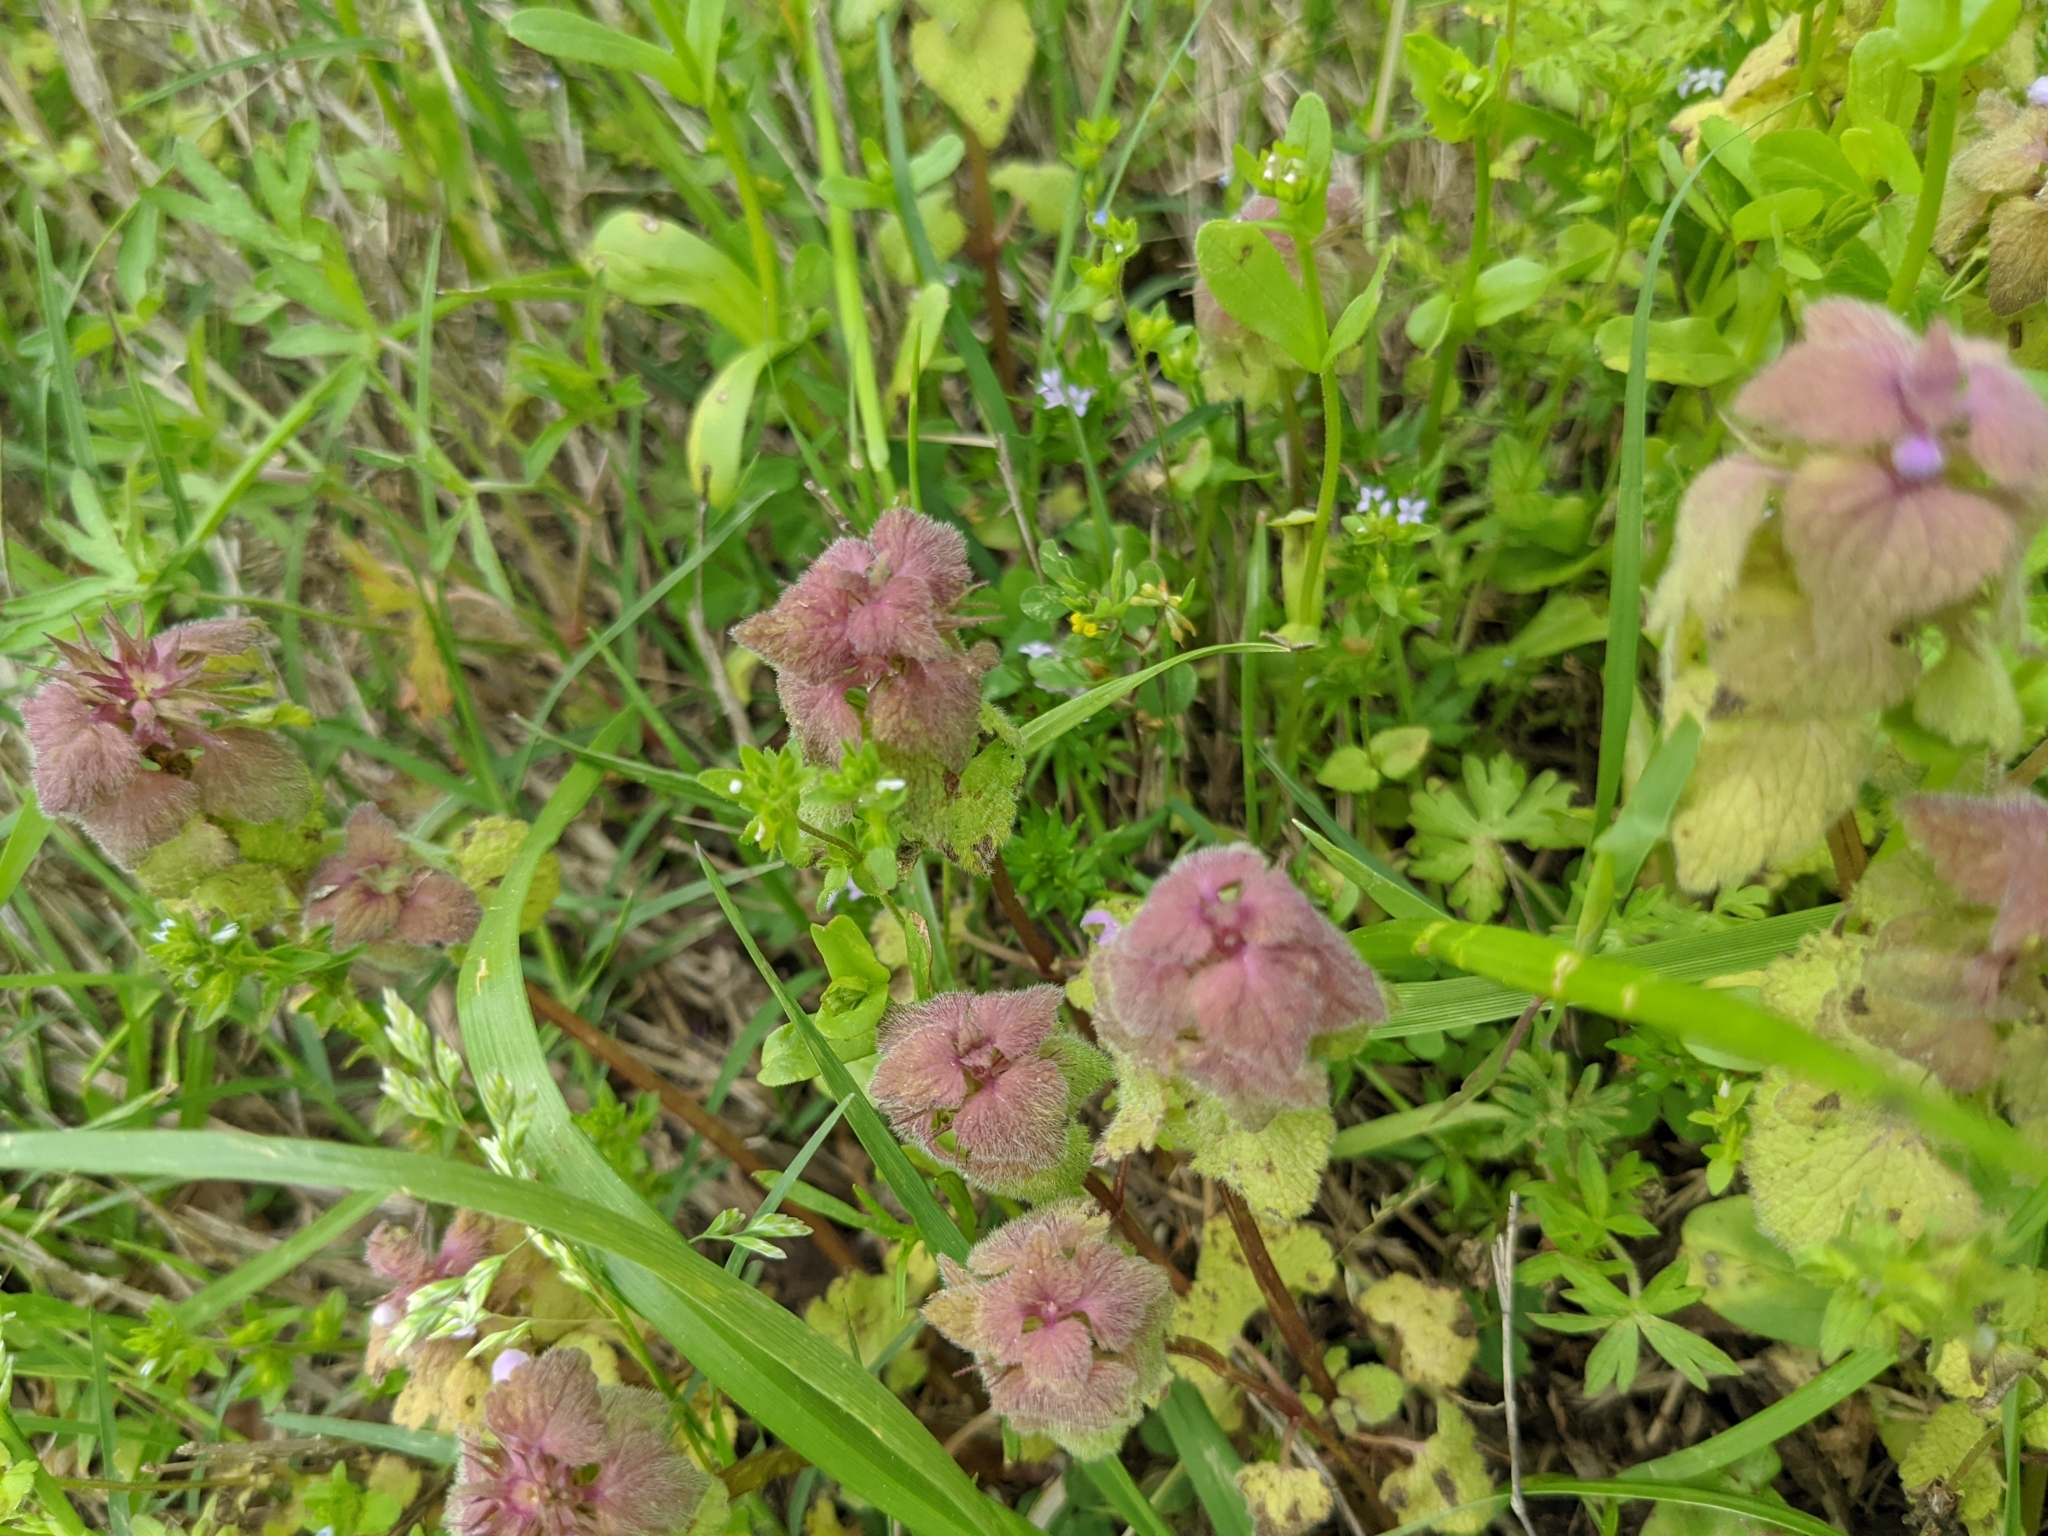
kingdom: Plantae
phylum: Tracheophyta
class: Magnoliopsida
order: Lamiales
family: Lamiaceae
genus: Lamium
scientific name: Lamium purpureum
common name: Red dead-nettle
